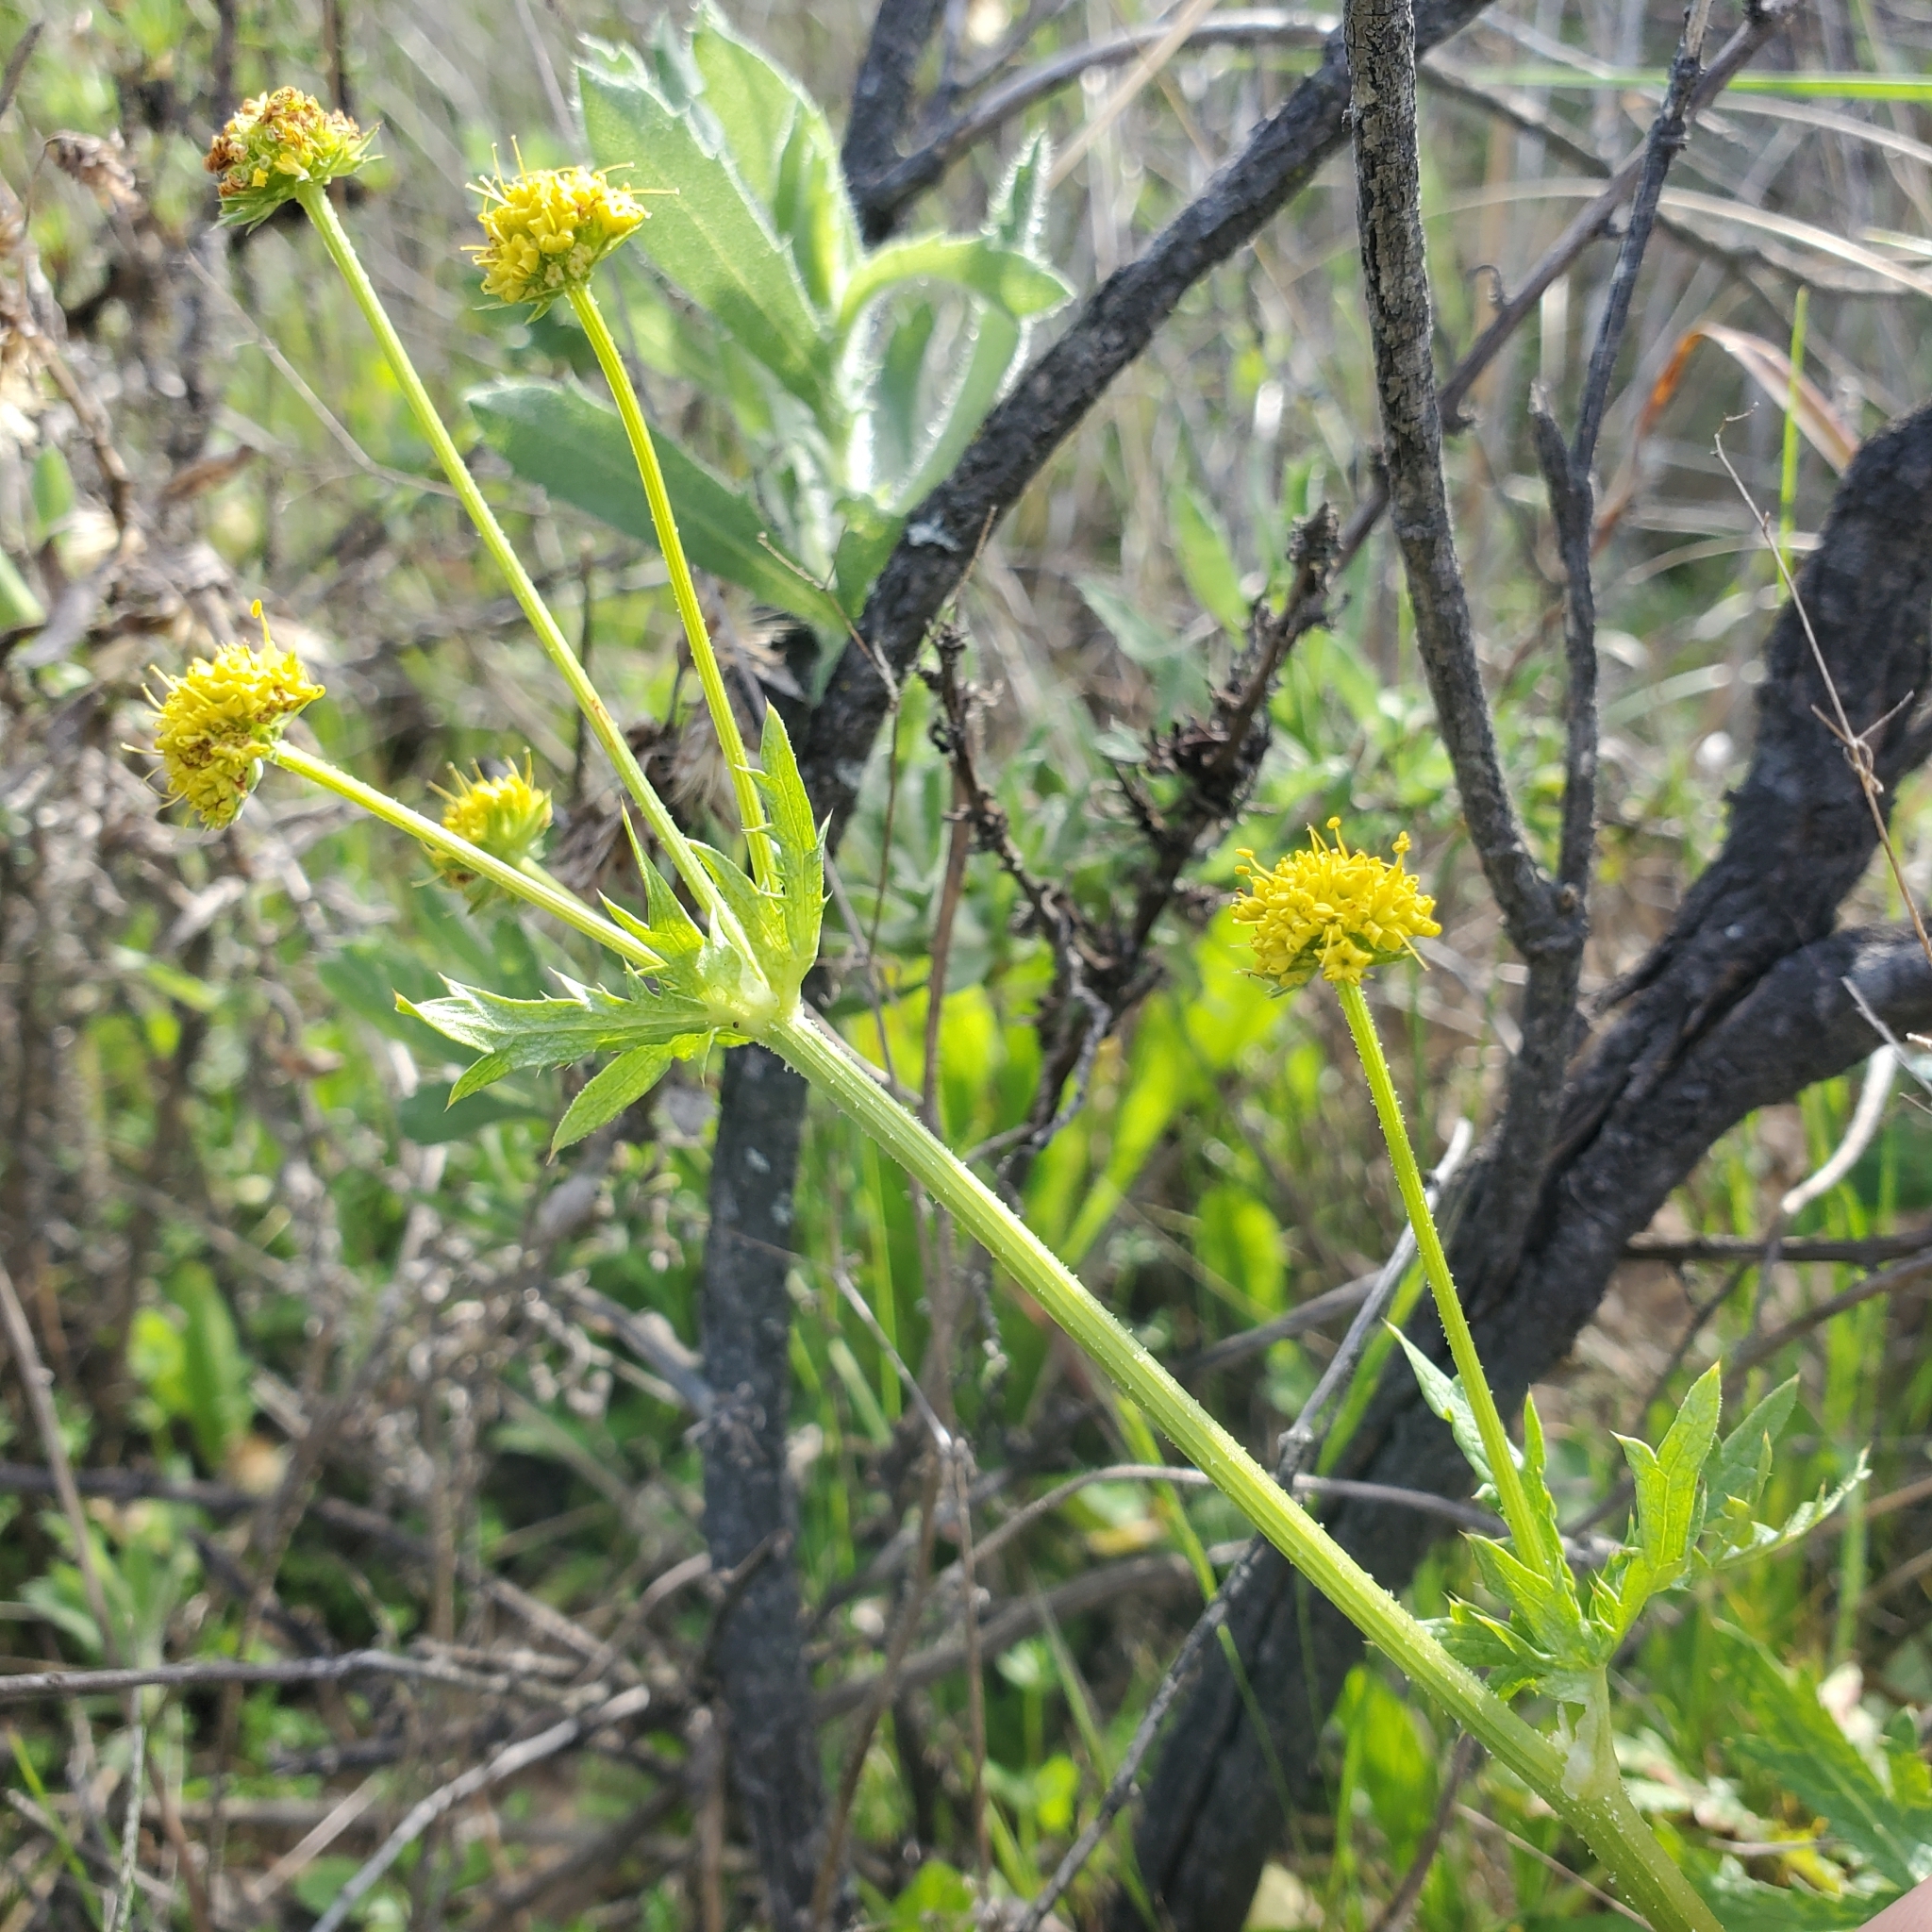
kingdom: Plantae
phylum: Tracheophyta
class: Magnoliopsida
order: Apiales
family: Apiaceae
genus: Sanicula
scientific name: Sanicula arguta
